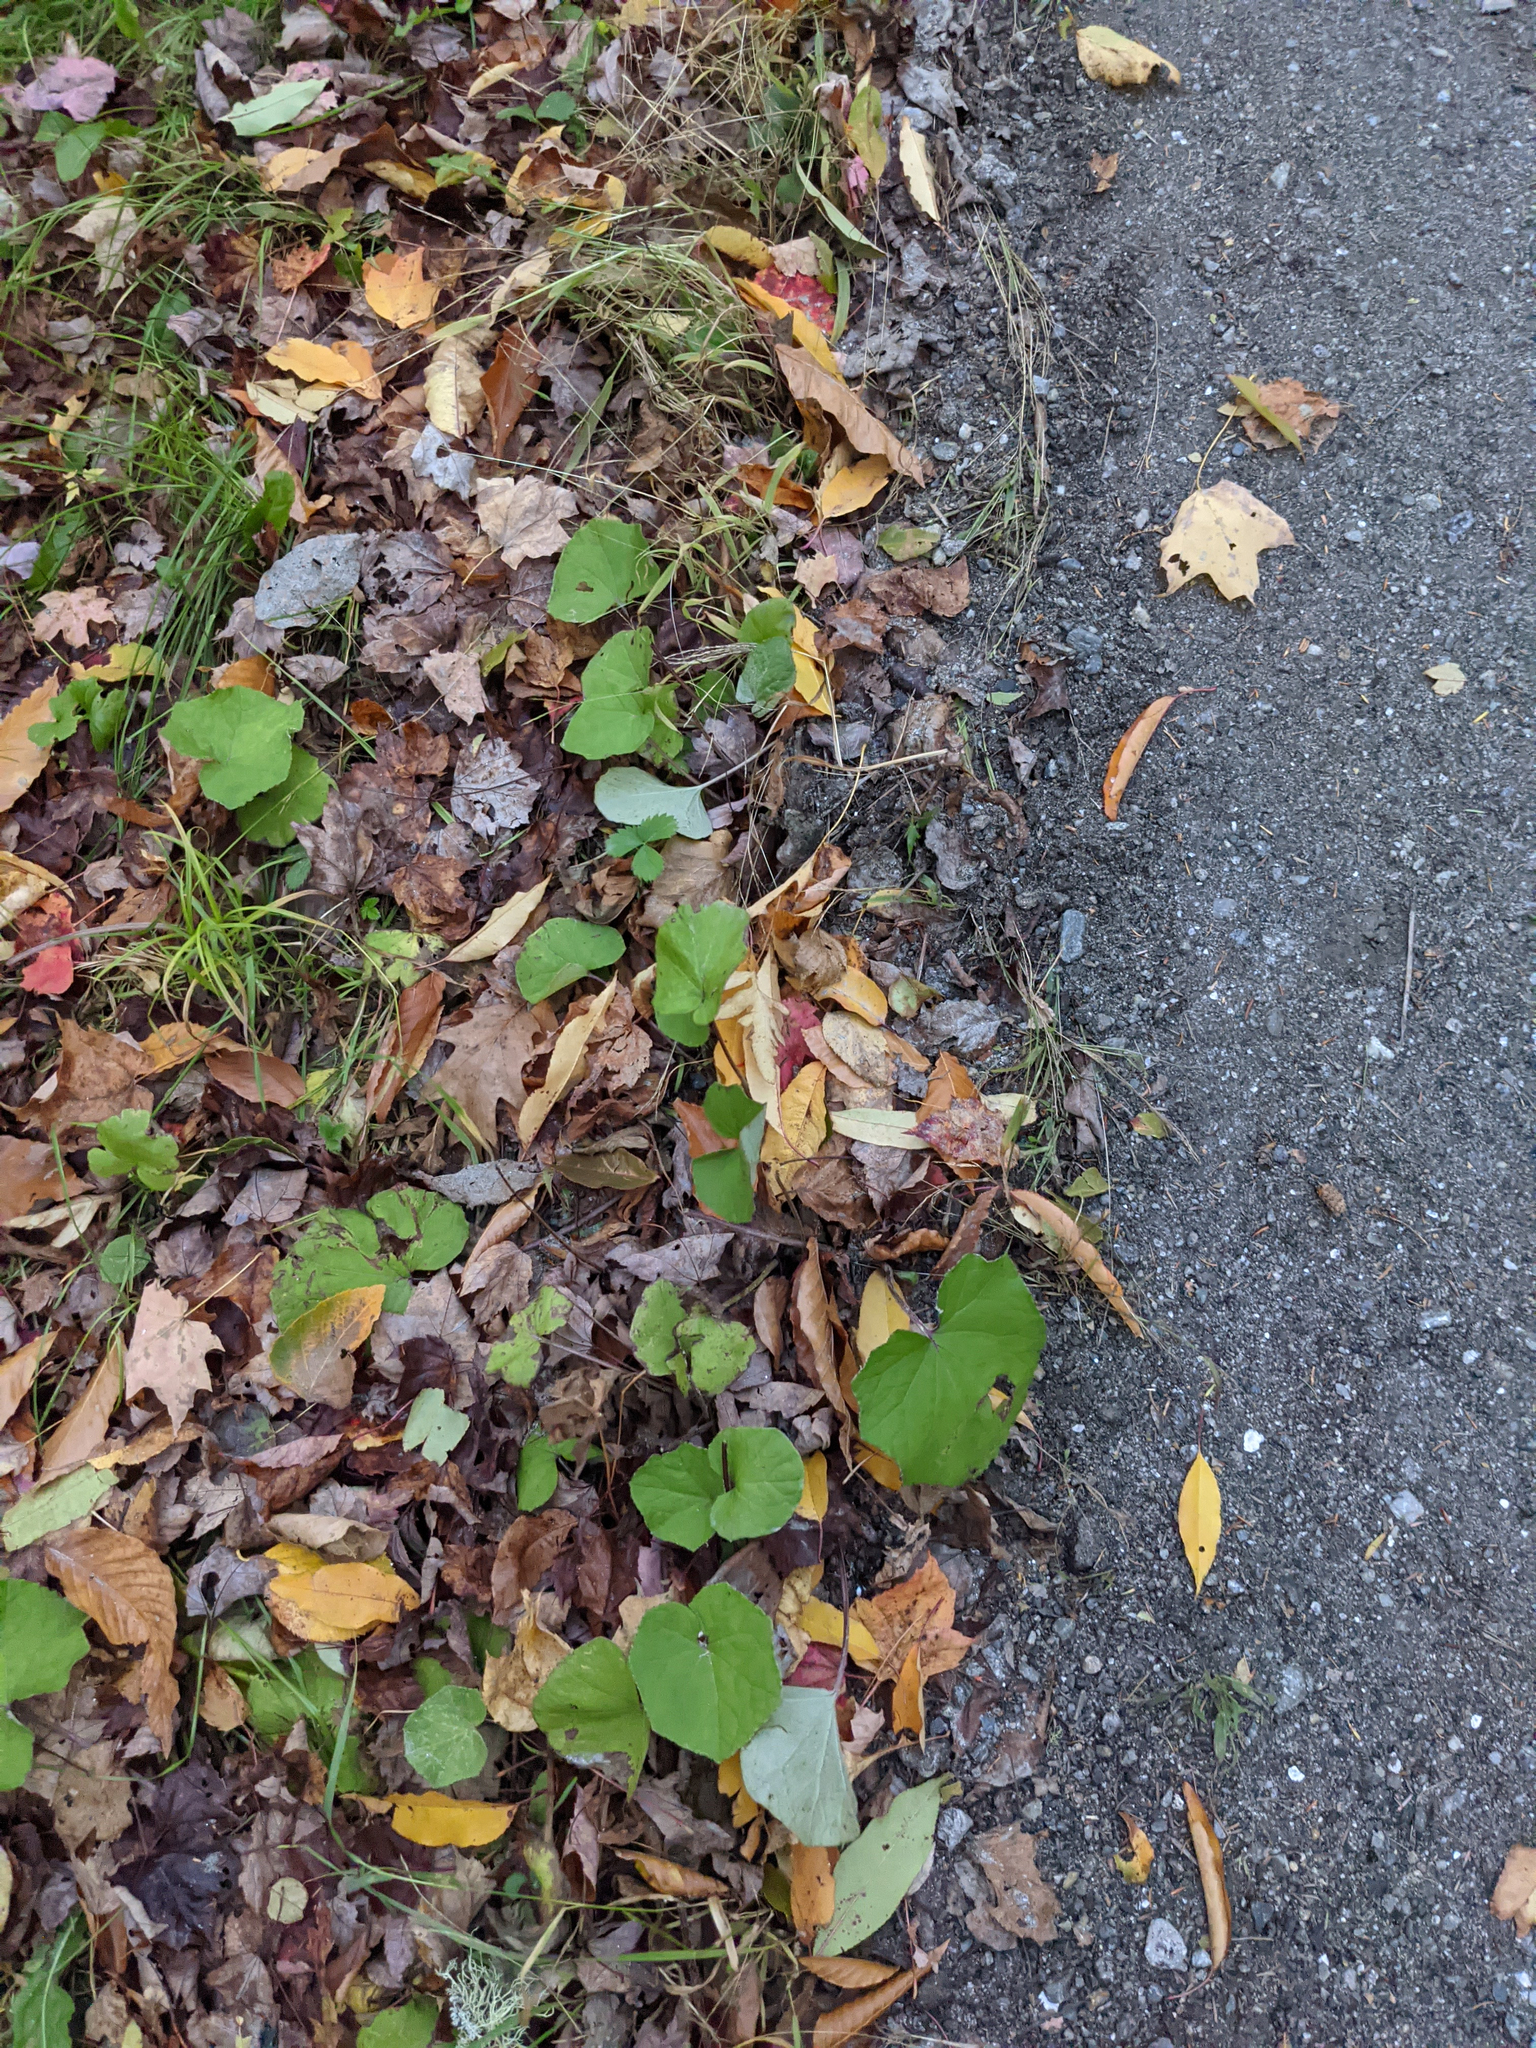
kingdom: Plantae
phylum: Tracheophyta
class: Magnoliopsida
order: Asterales
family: Asteraceae
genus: Tussilago
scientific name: Tussilago farfara
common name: Coltsfoot
